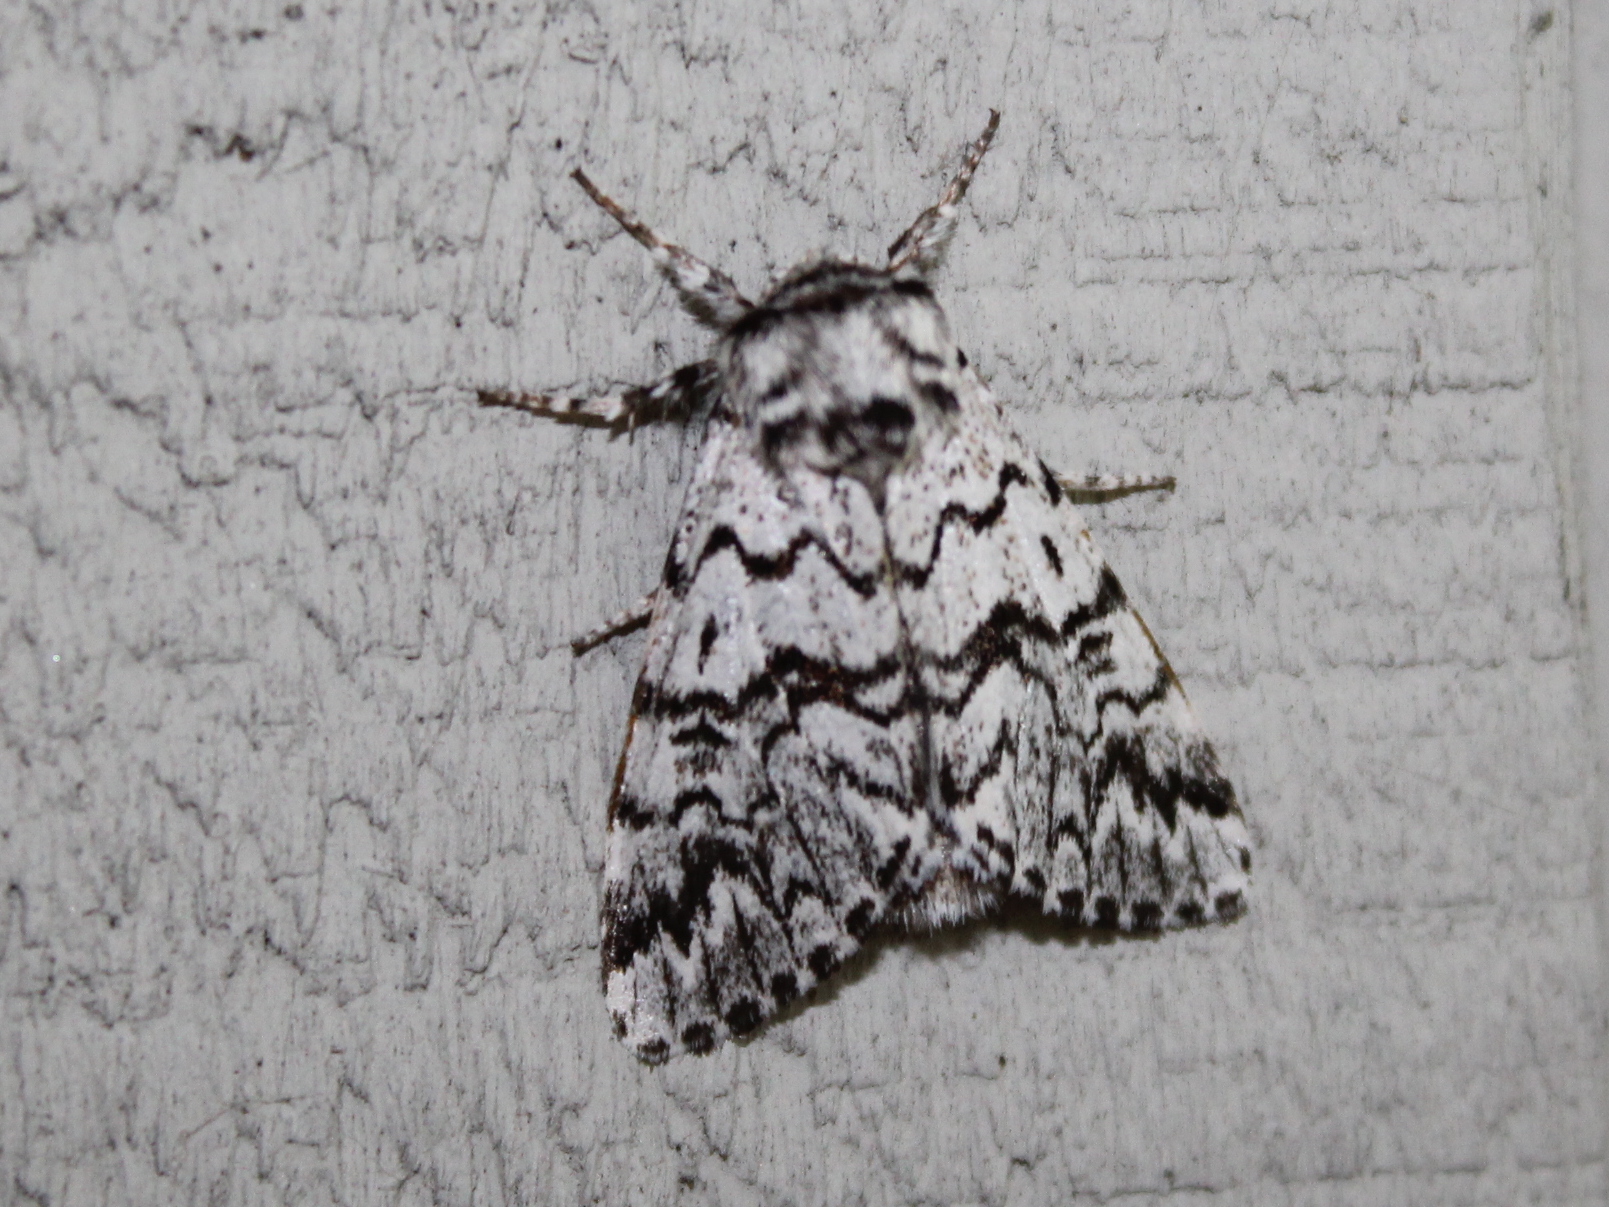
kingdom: Animalia
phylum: Arthropoda
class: Insecta
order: Lepidoptera
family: Noctuidae
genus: Panthea
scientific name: Panthea acronyctoides
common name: Black zigzag moth
